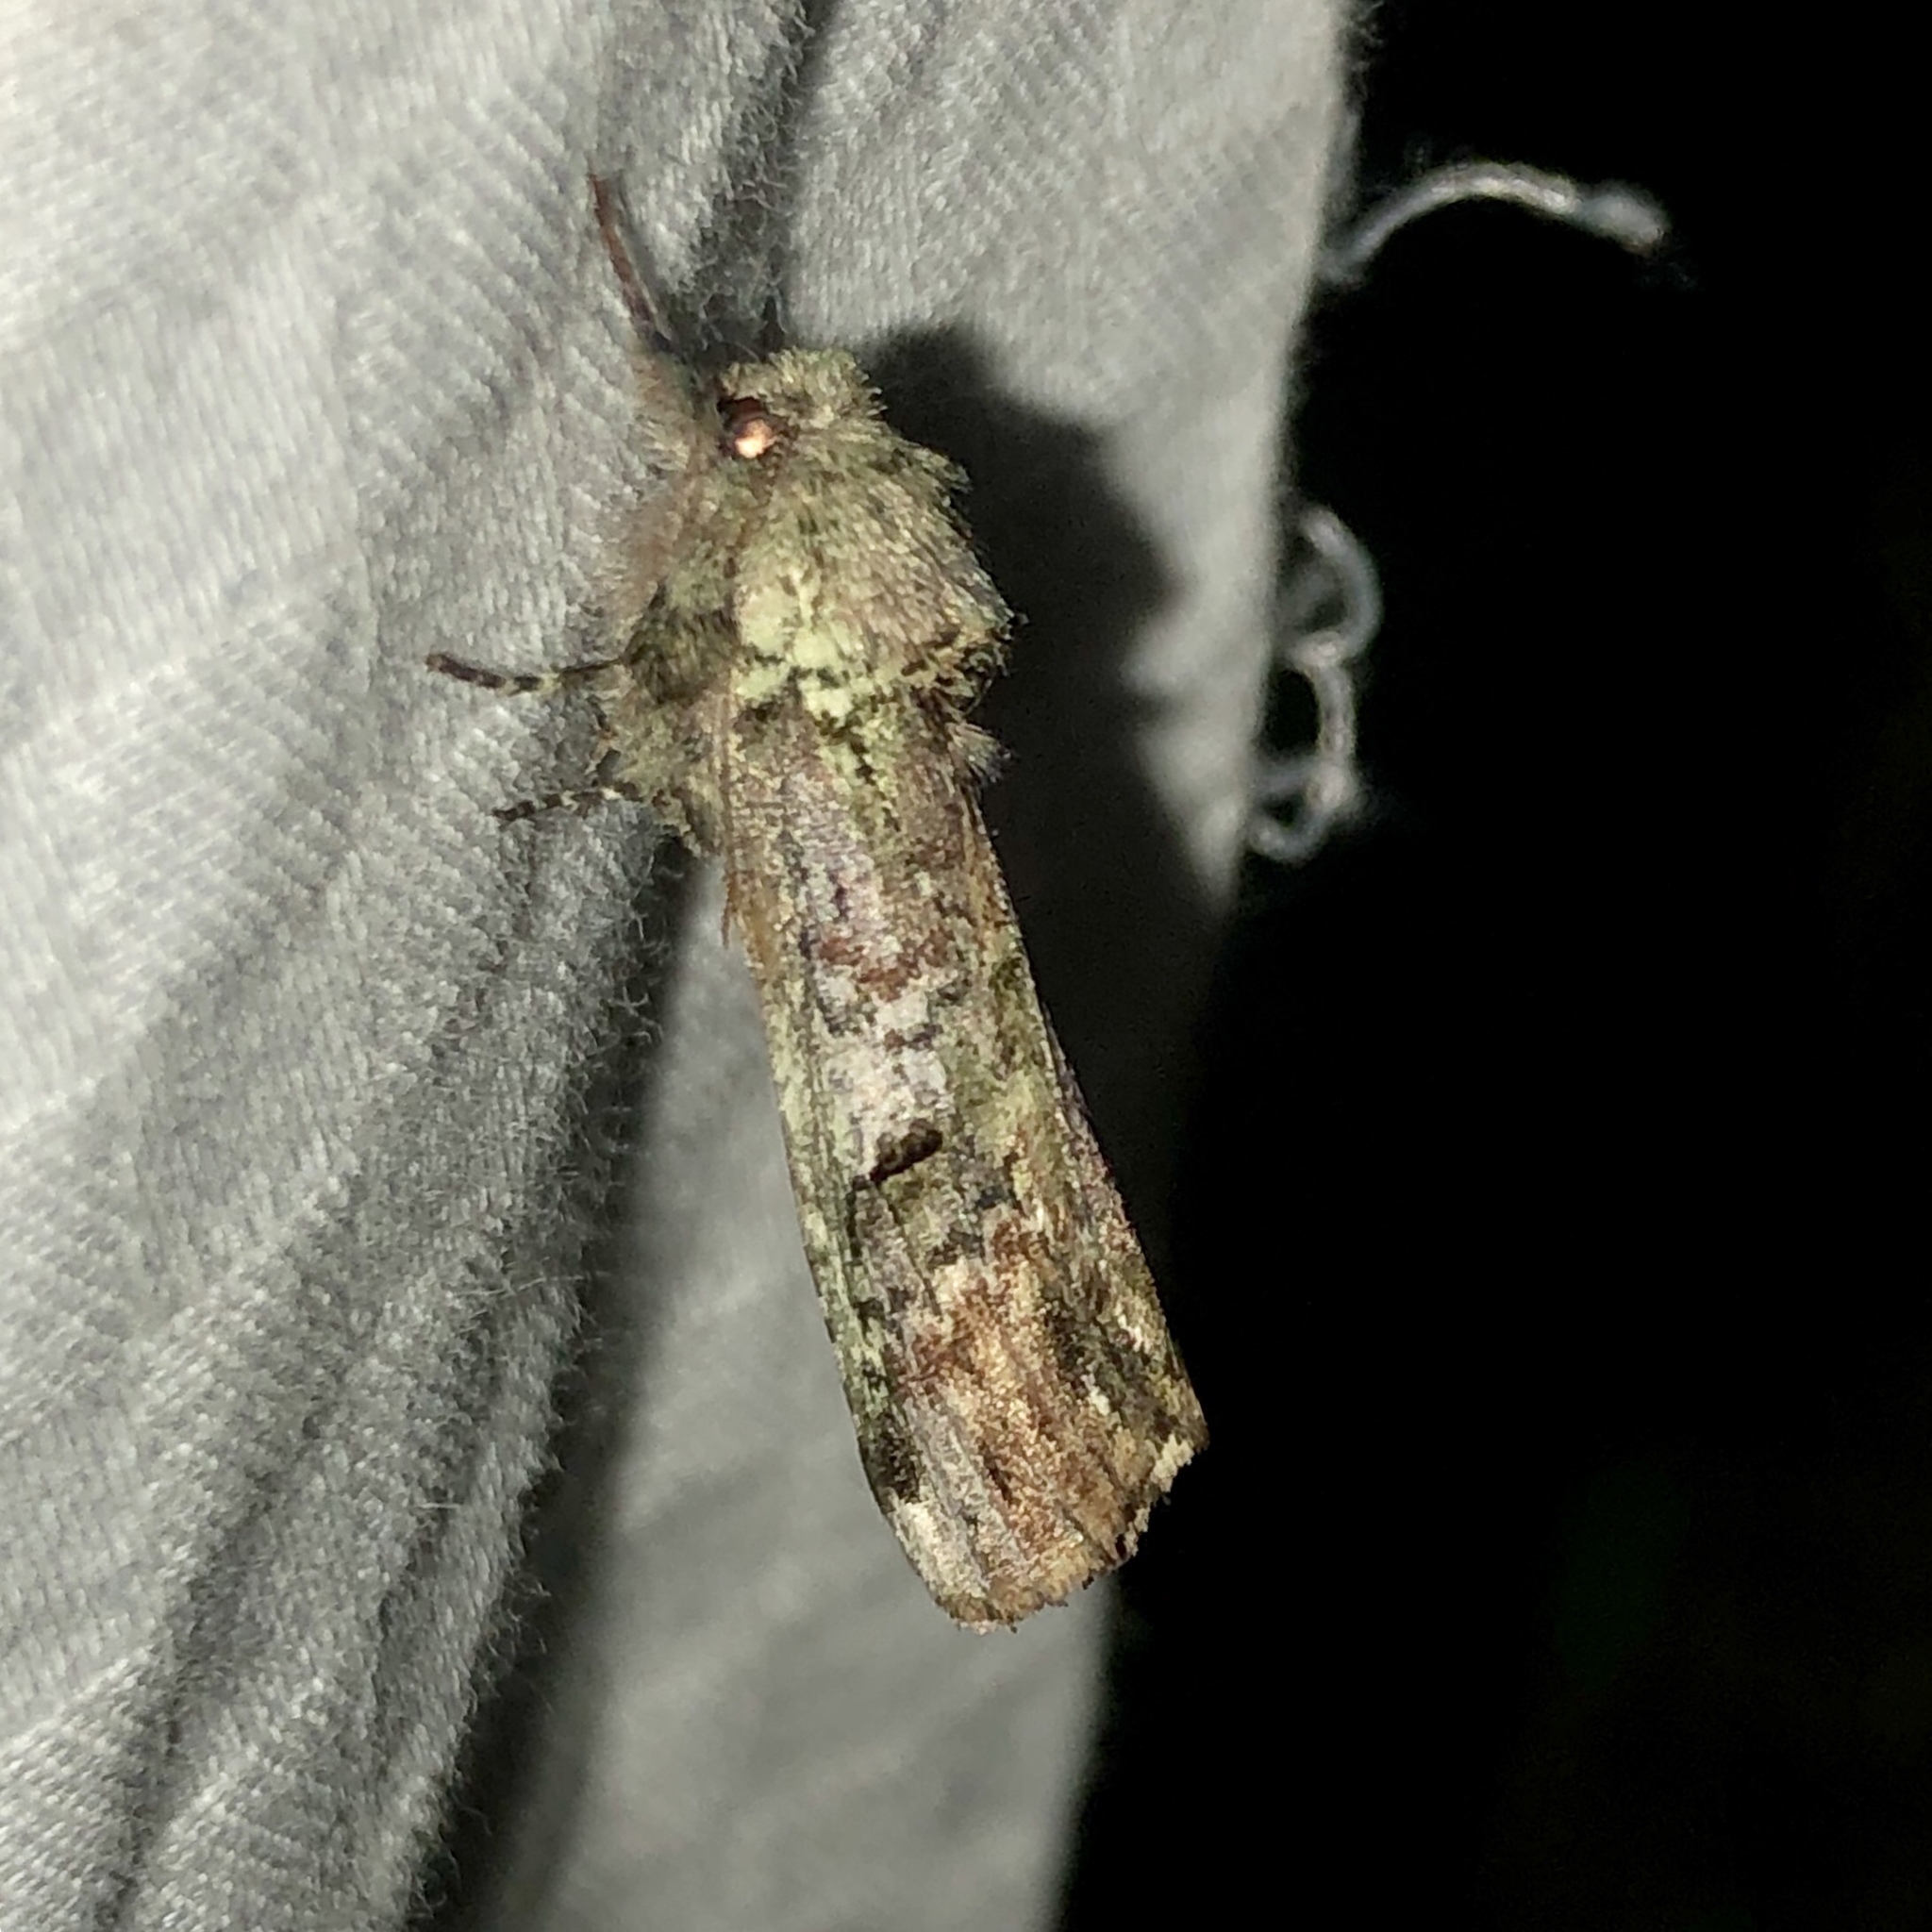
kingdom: Animalia
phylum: Arthropoda
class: Insecta
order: Lepidoptera
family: Notodontidae
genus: Schizura
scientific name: Schizura
